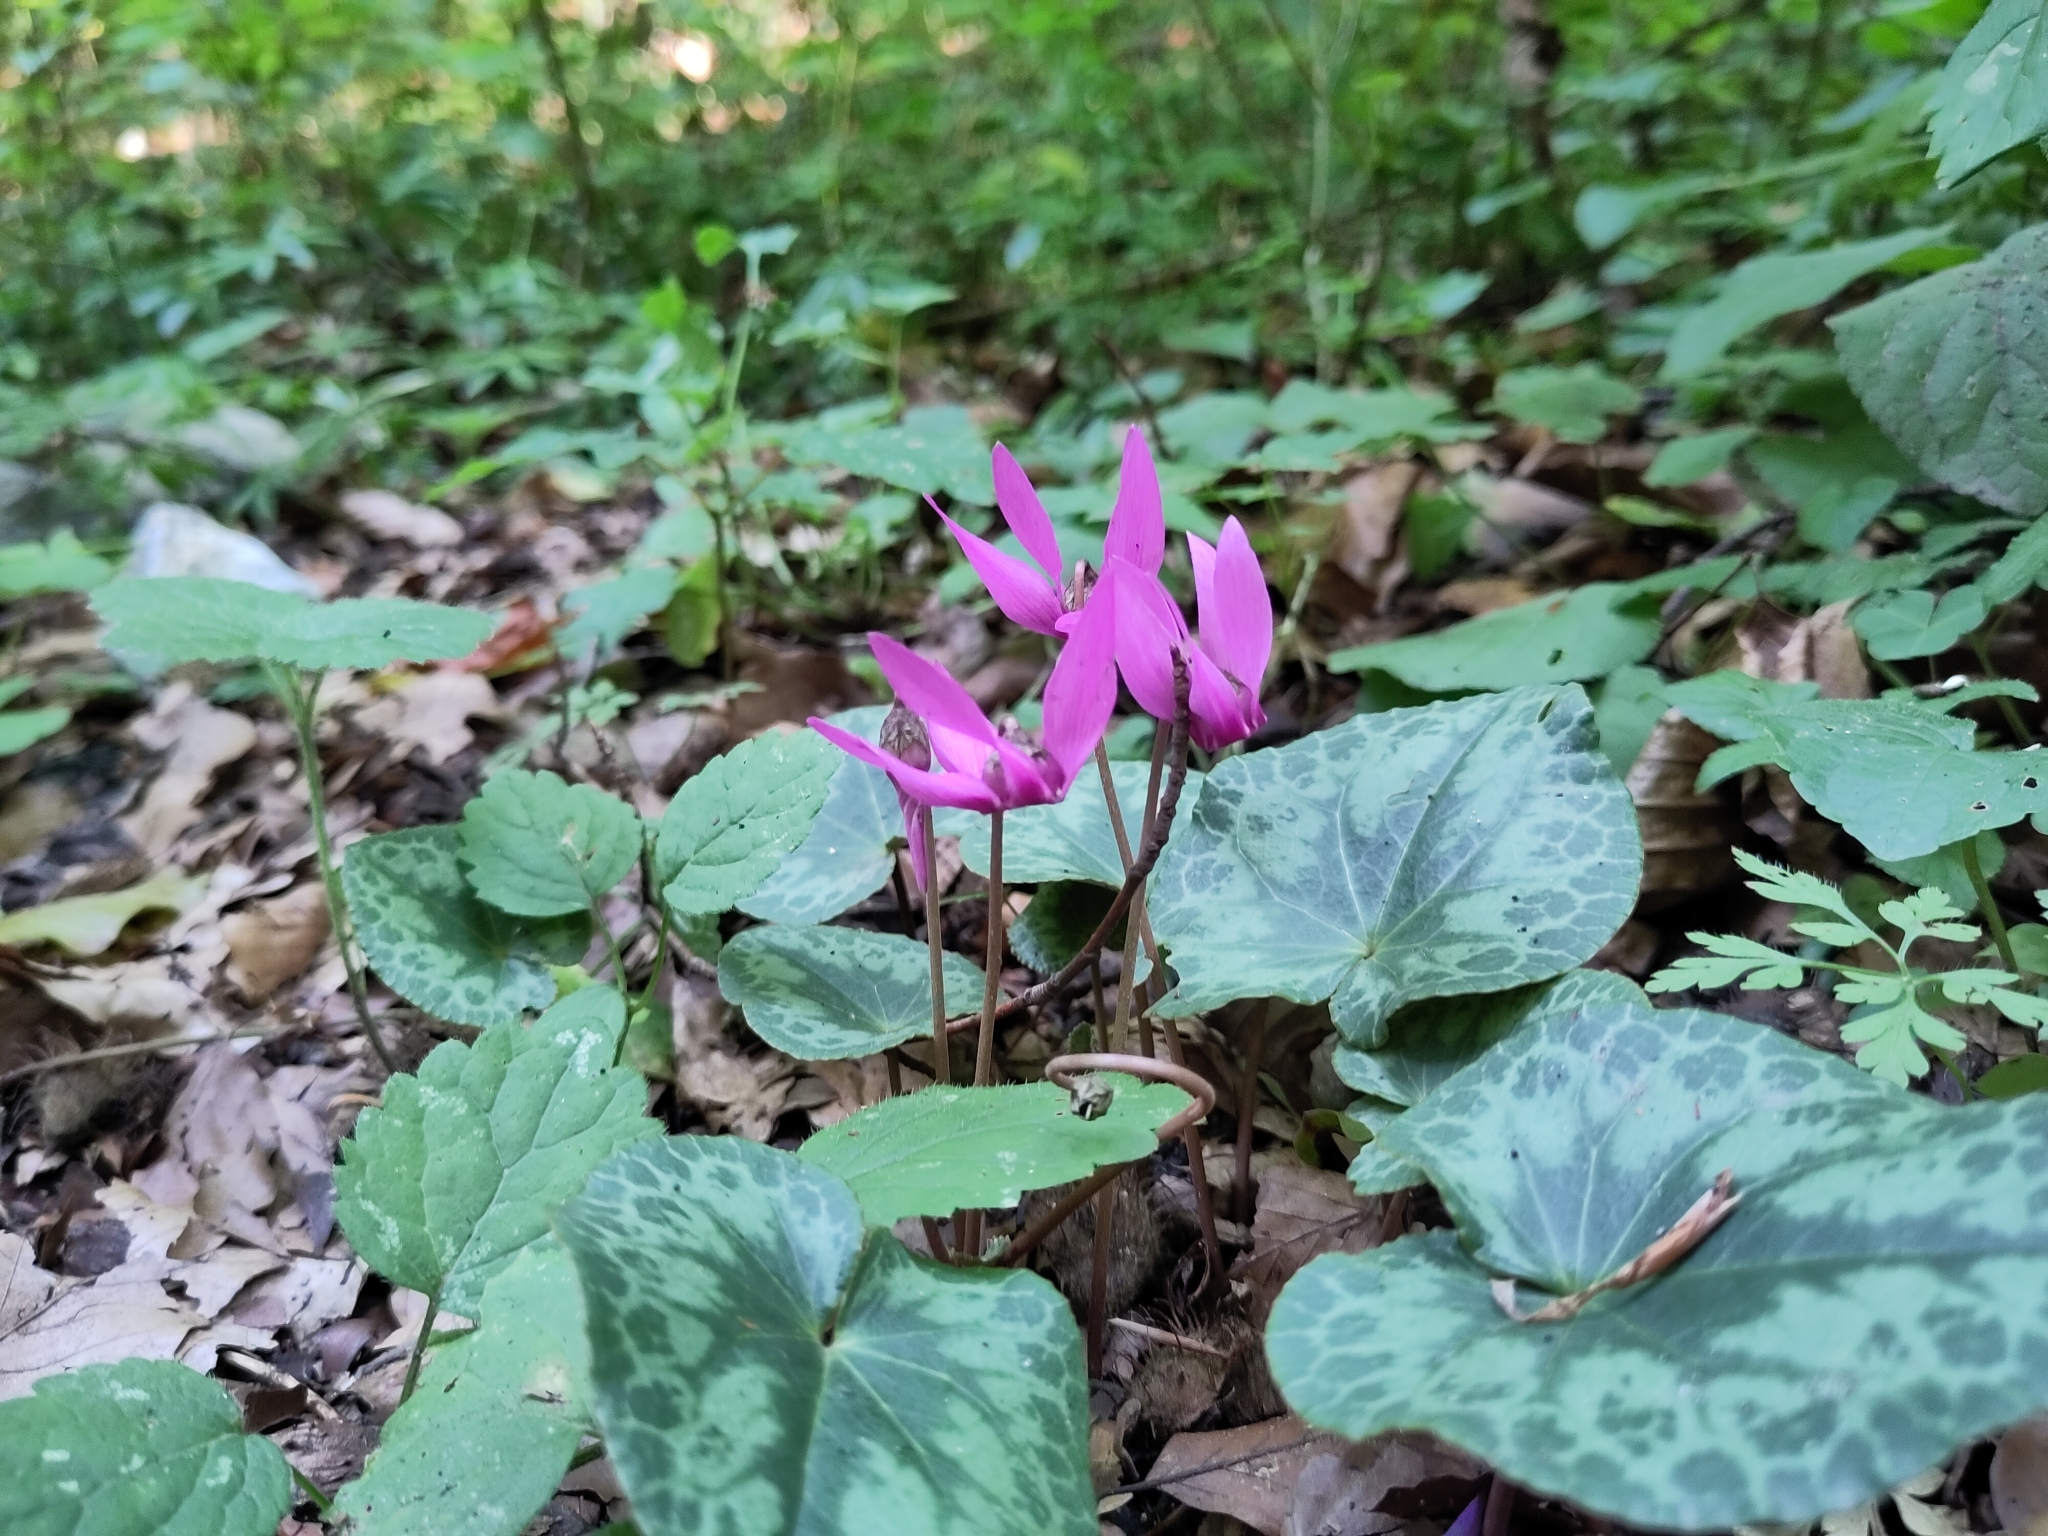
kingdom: Plantae
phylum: Tracheophyta
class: Magnoliopsida
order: Ericales
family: Primulaceae
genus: Cyclamen
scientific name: Cyclamen purpurascens
